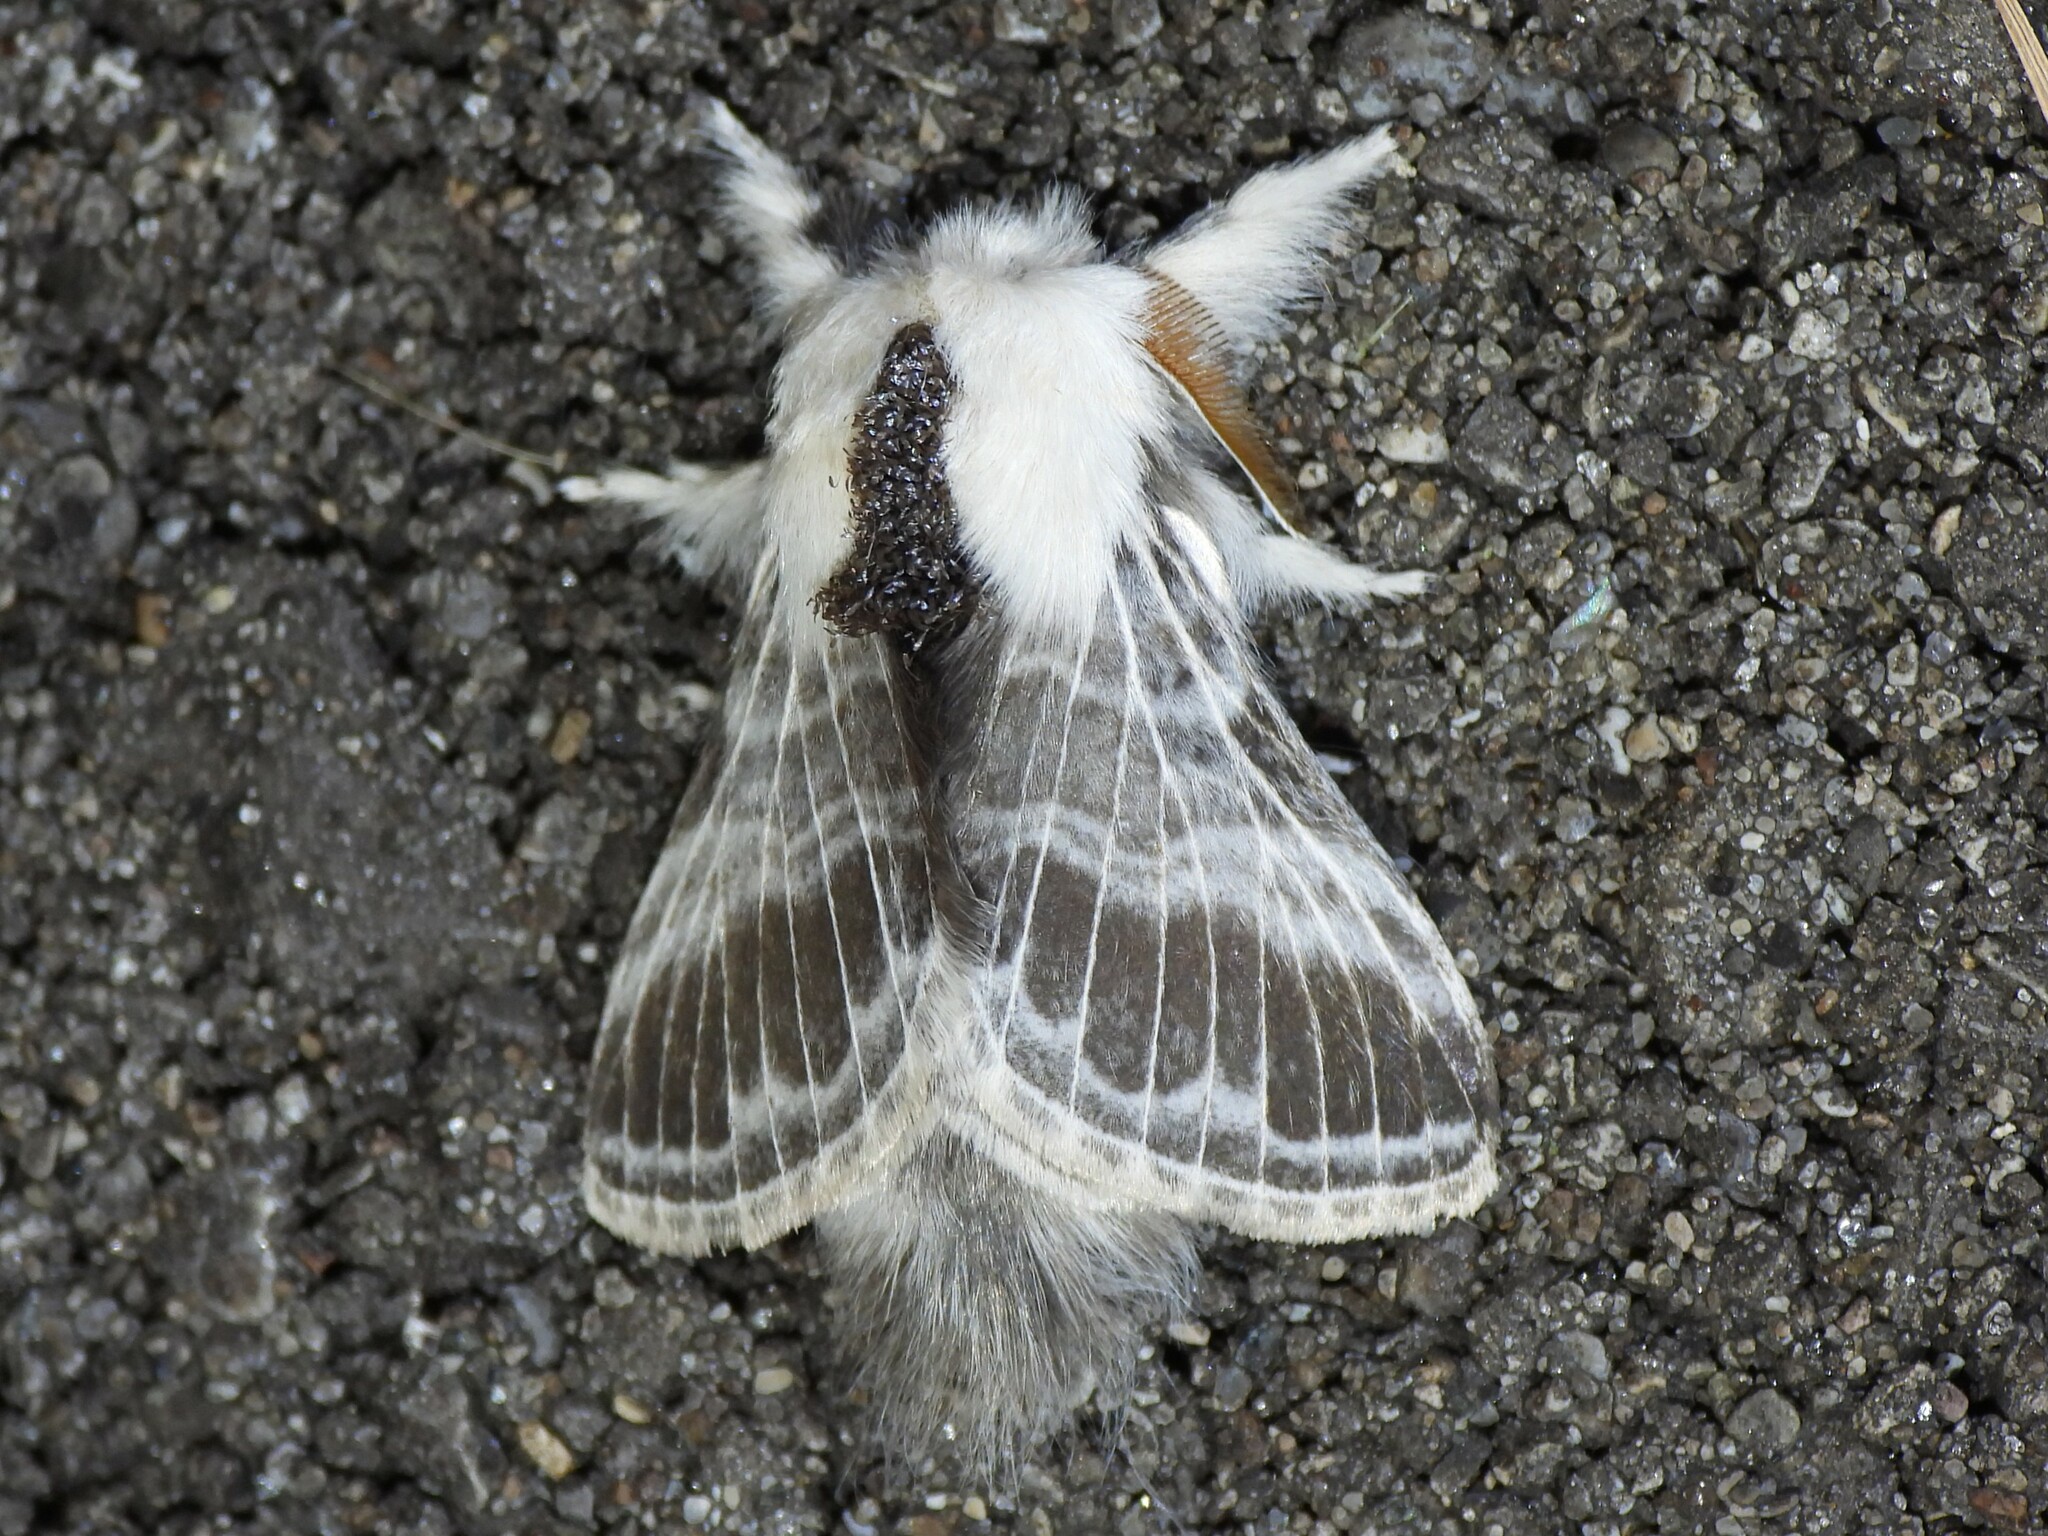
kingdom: Animalia
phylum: Arthropoda
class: Insecta
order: Lepidoptera
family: Lasiocampidae
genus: Tolype
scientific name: Tolype velleda
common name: Large tolype moth
